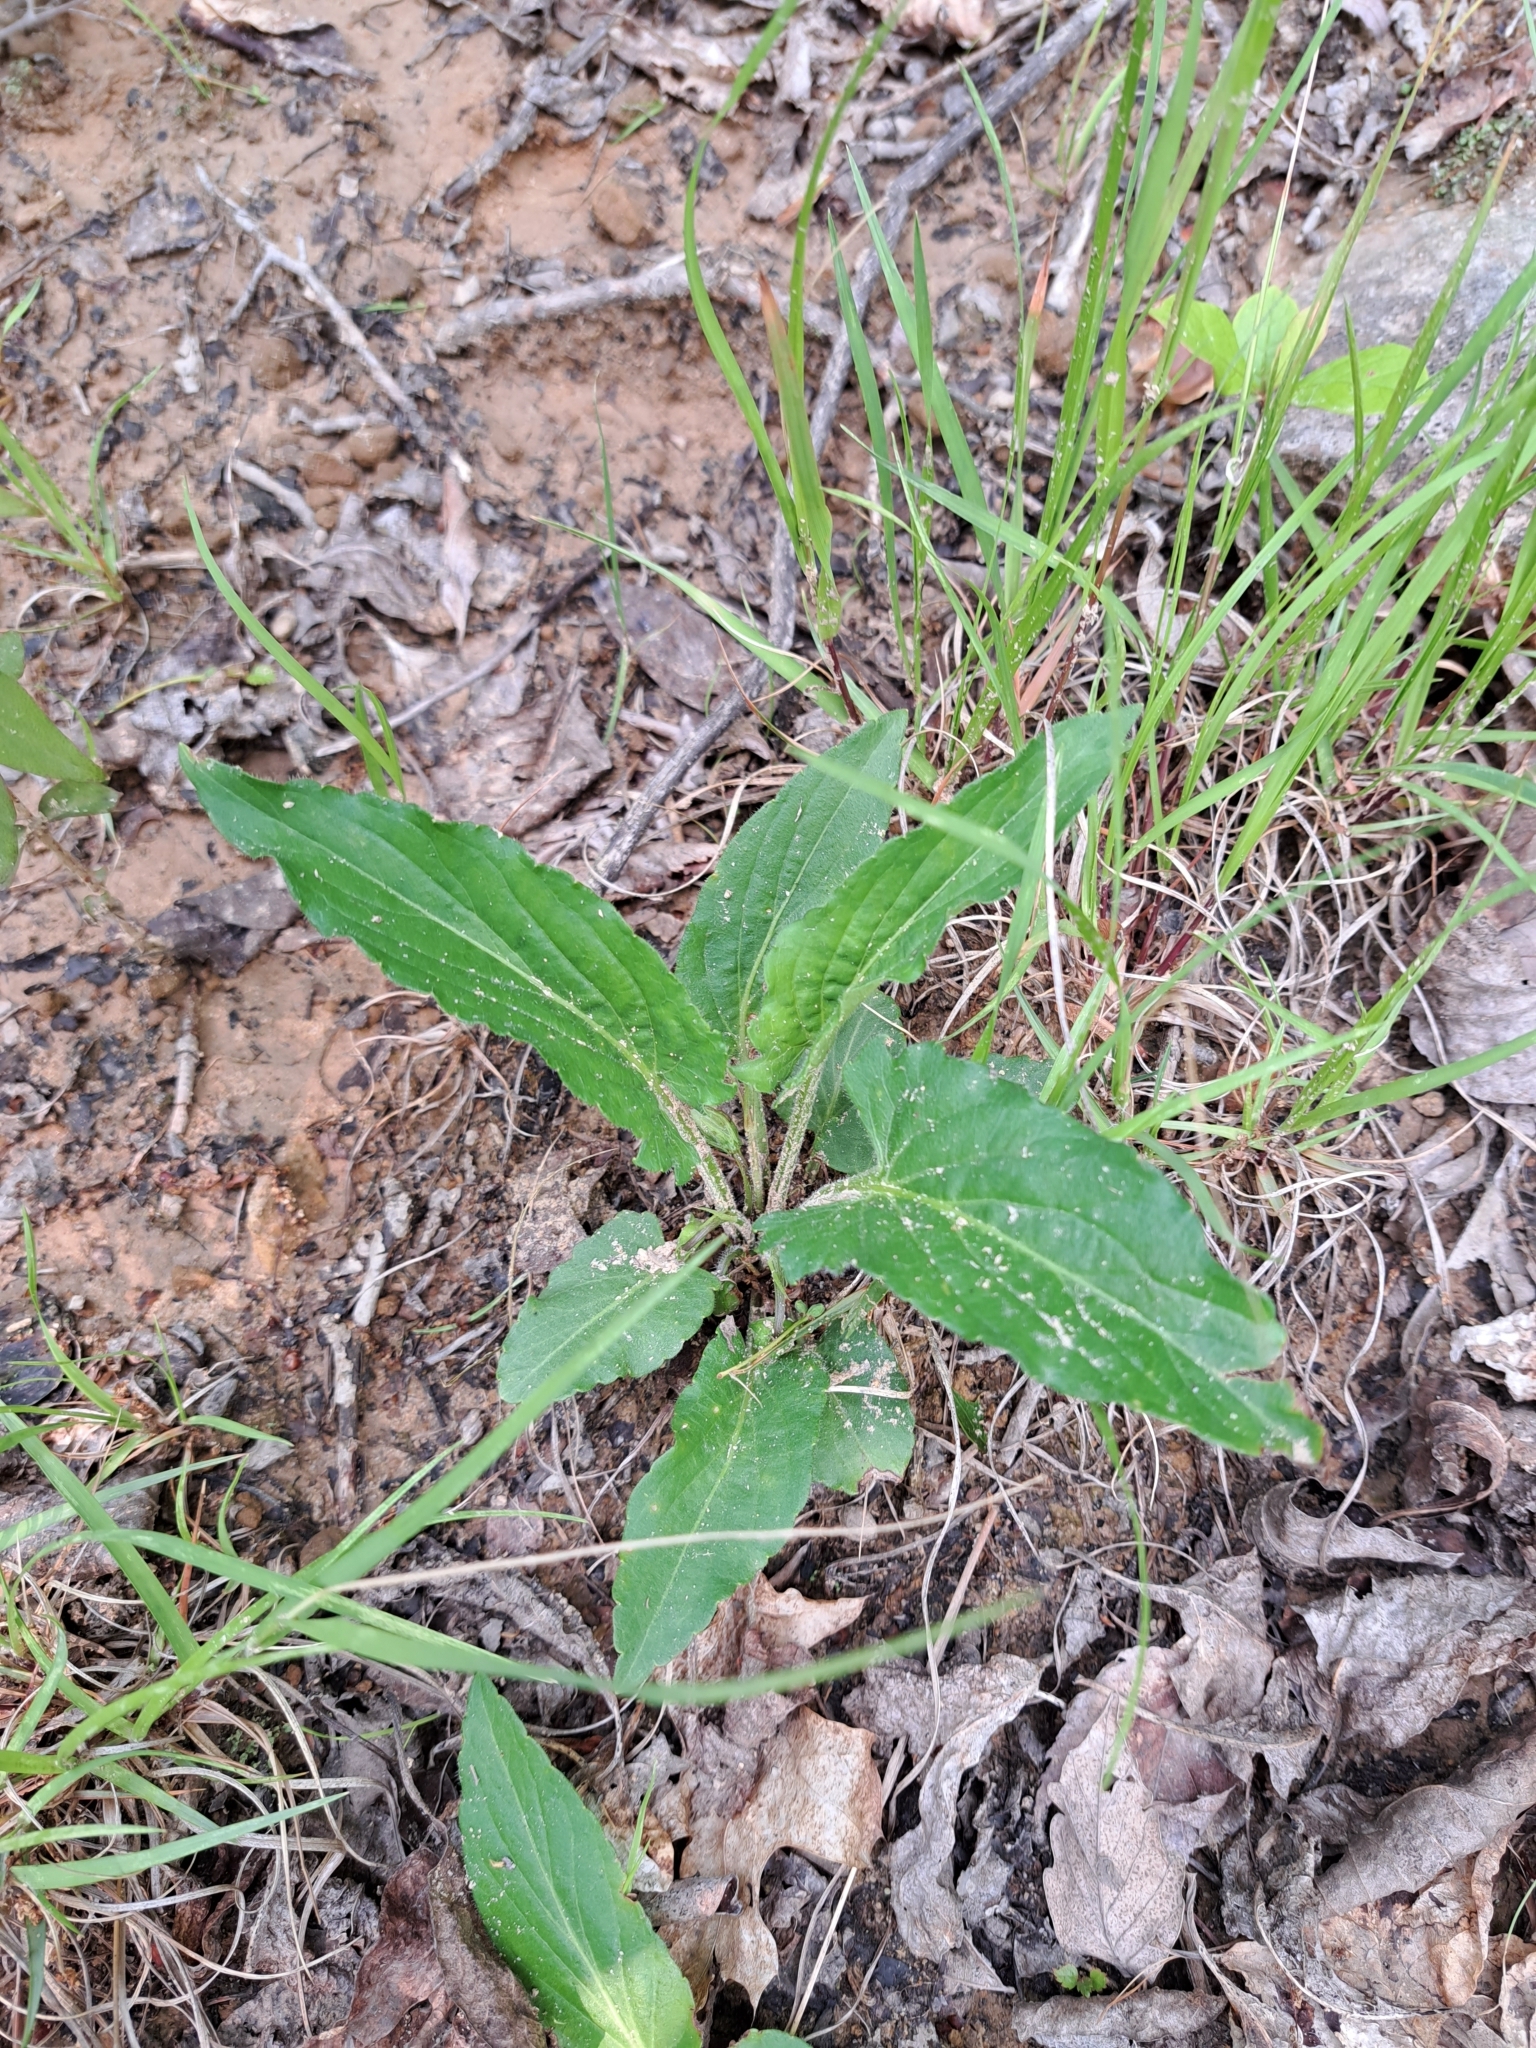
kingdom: Plantae
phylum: Tracheophyta
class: Magnoliopsida
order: Malpighiales
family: Violaceae
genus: Viola
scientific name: Viola sagittata
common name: Arrowhead violet
